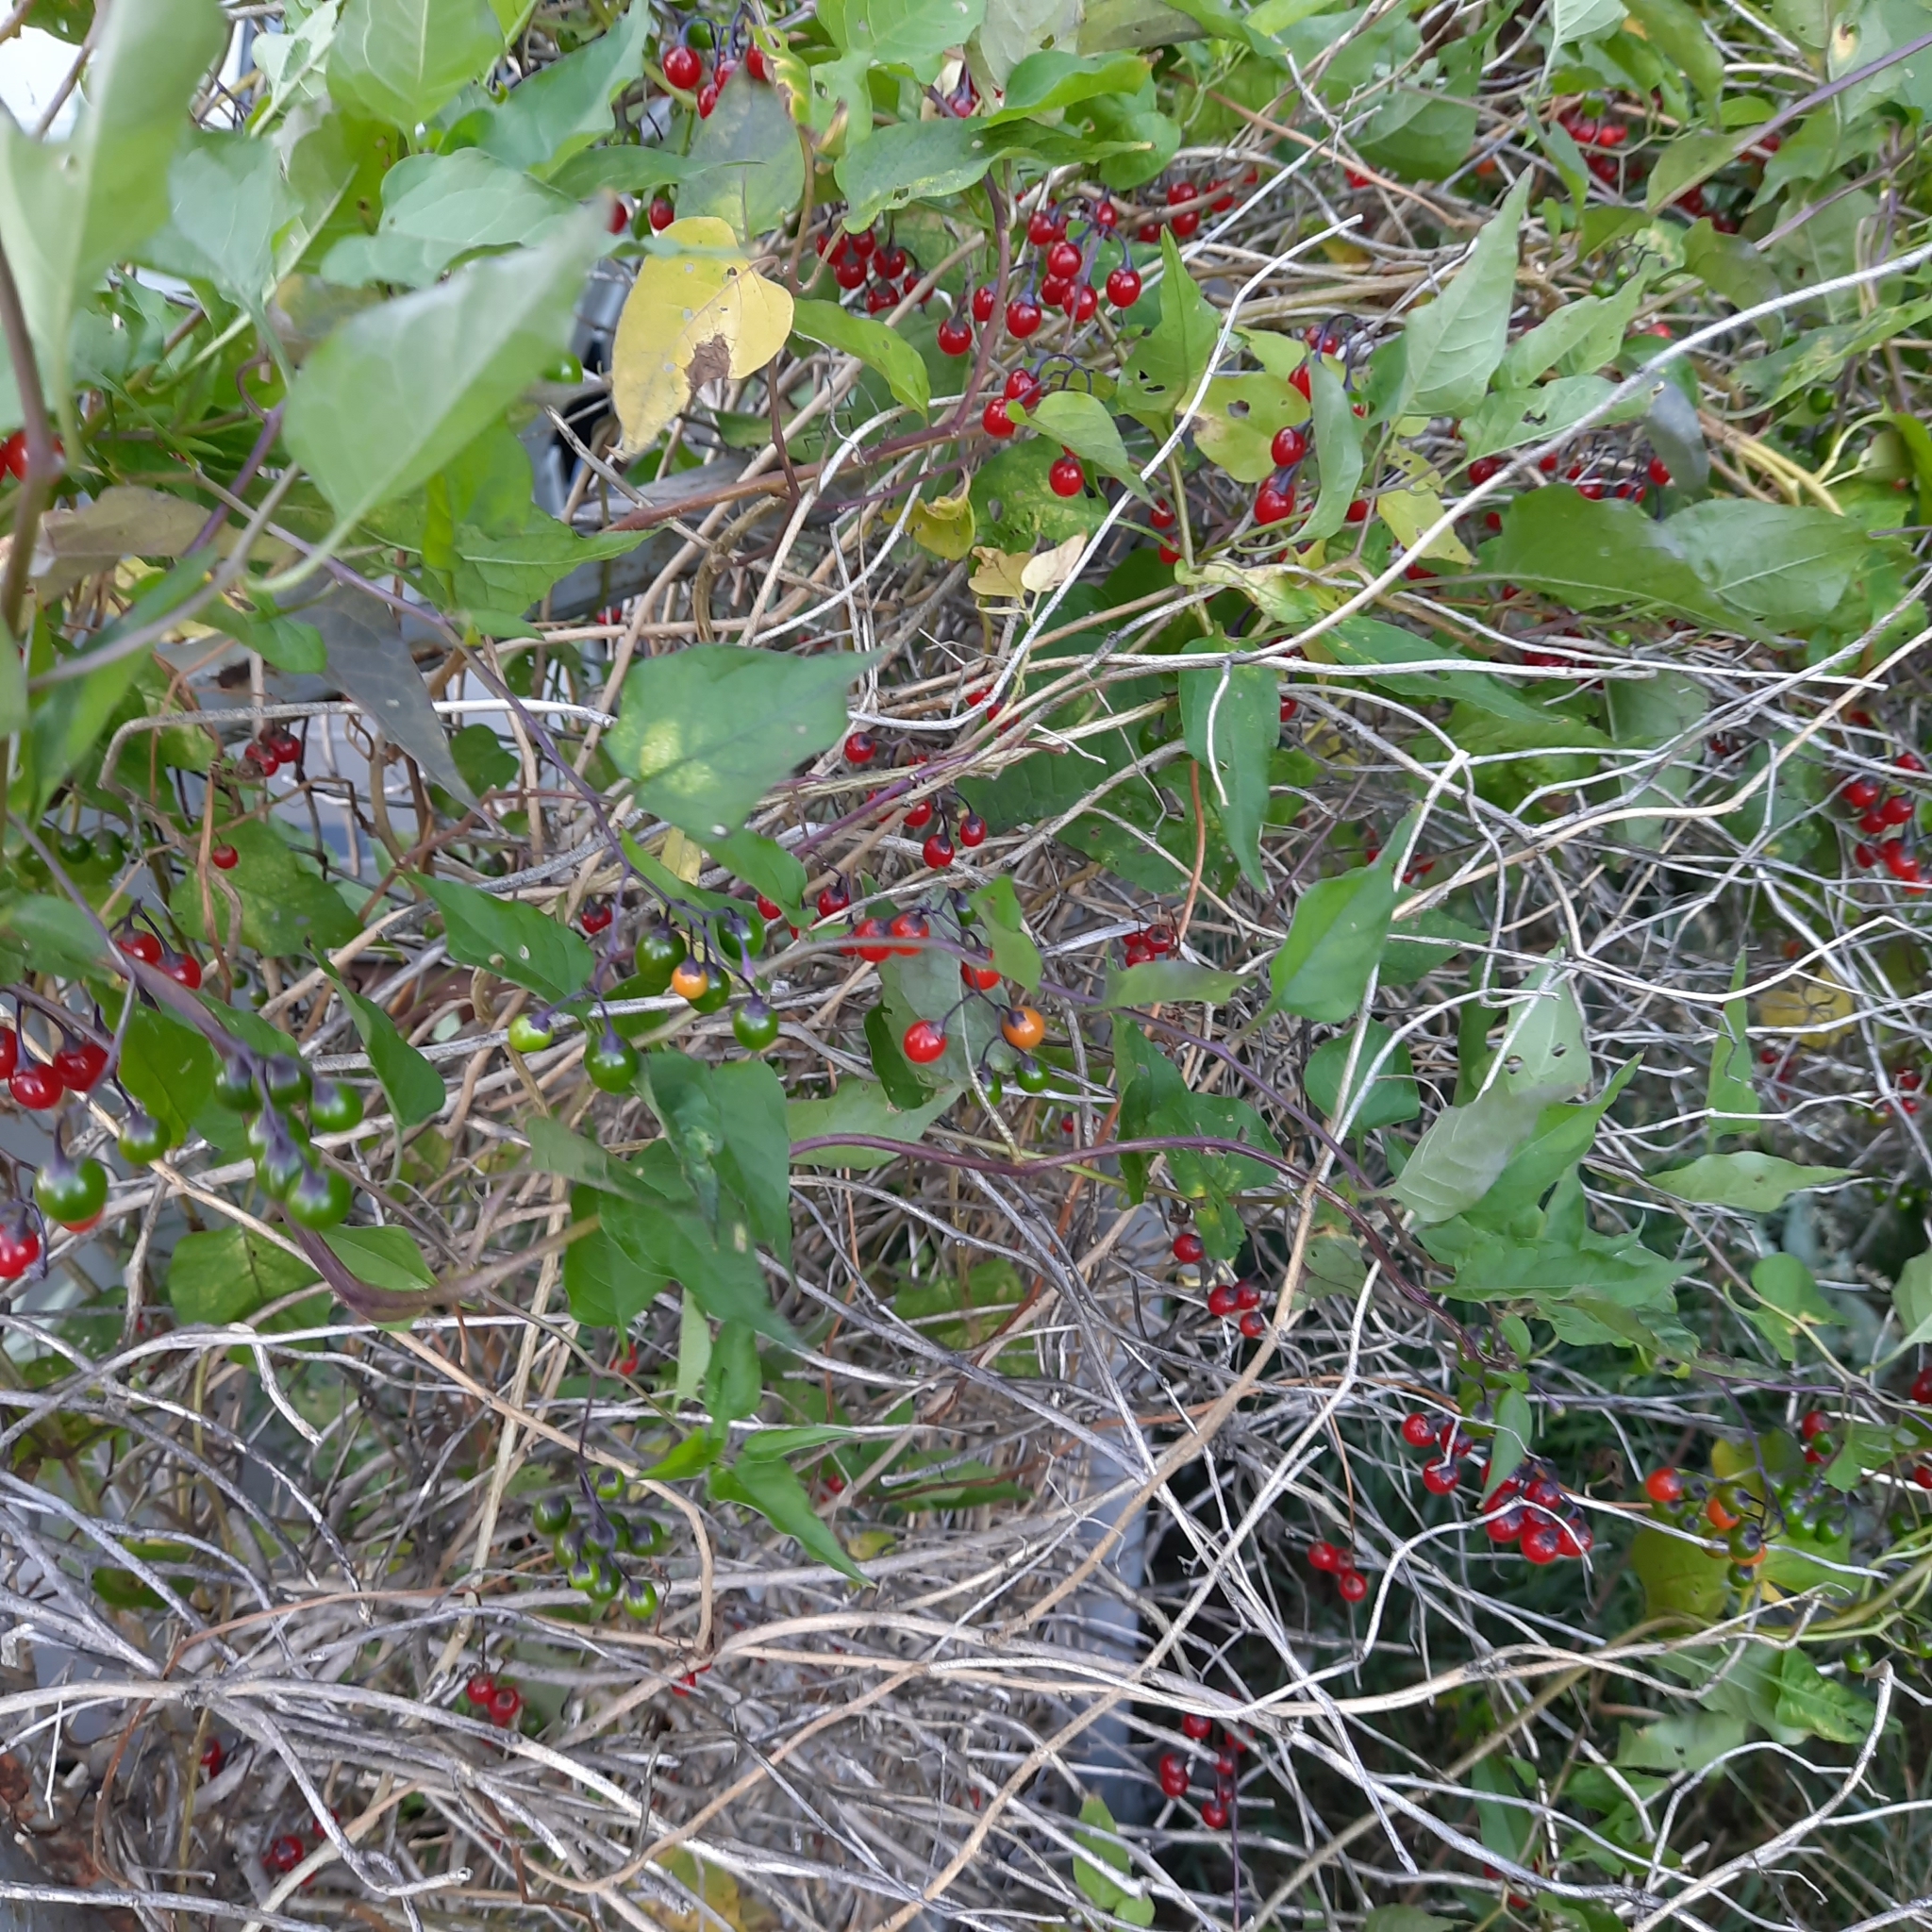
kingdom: Plantae
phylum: Tracheophyta
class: Magnoliopsida
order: Solanales
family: Solanaceae
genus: Solanum
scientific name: Solanum dulcamara
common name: Climbing nightshade
